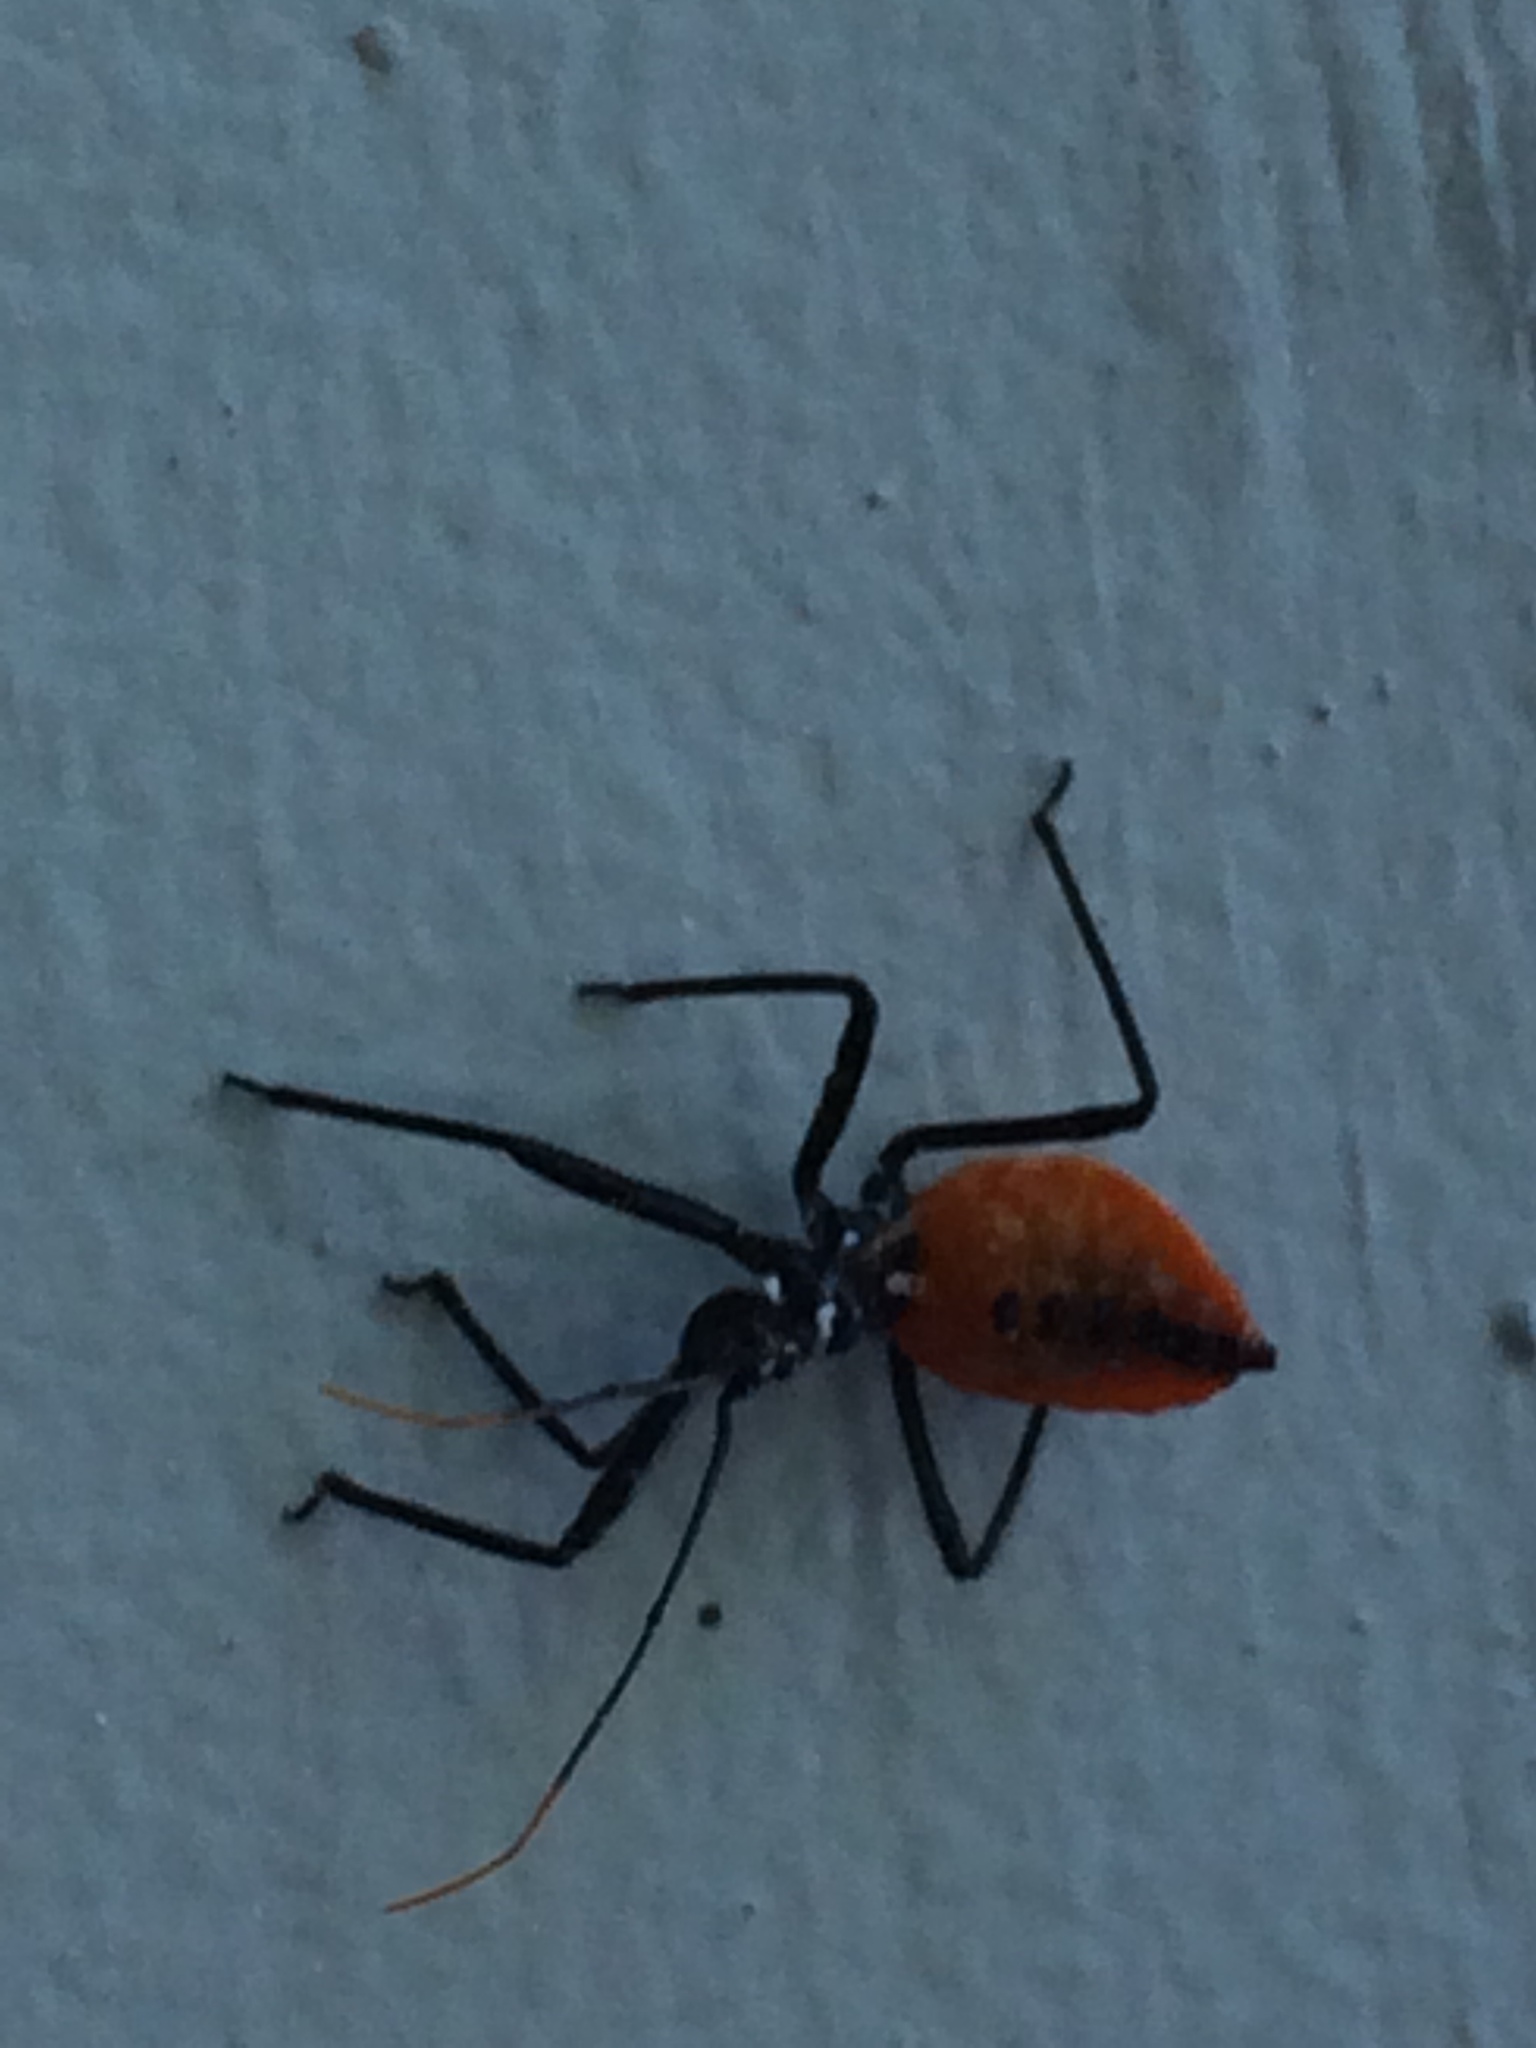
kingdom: Animalia
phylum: Arthropoda
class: Insecta
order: Hemiptera
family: Reduviidae
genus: Arilus
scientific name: Arilus cristatus
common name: North american wheel bug
